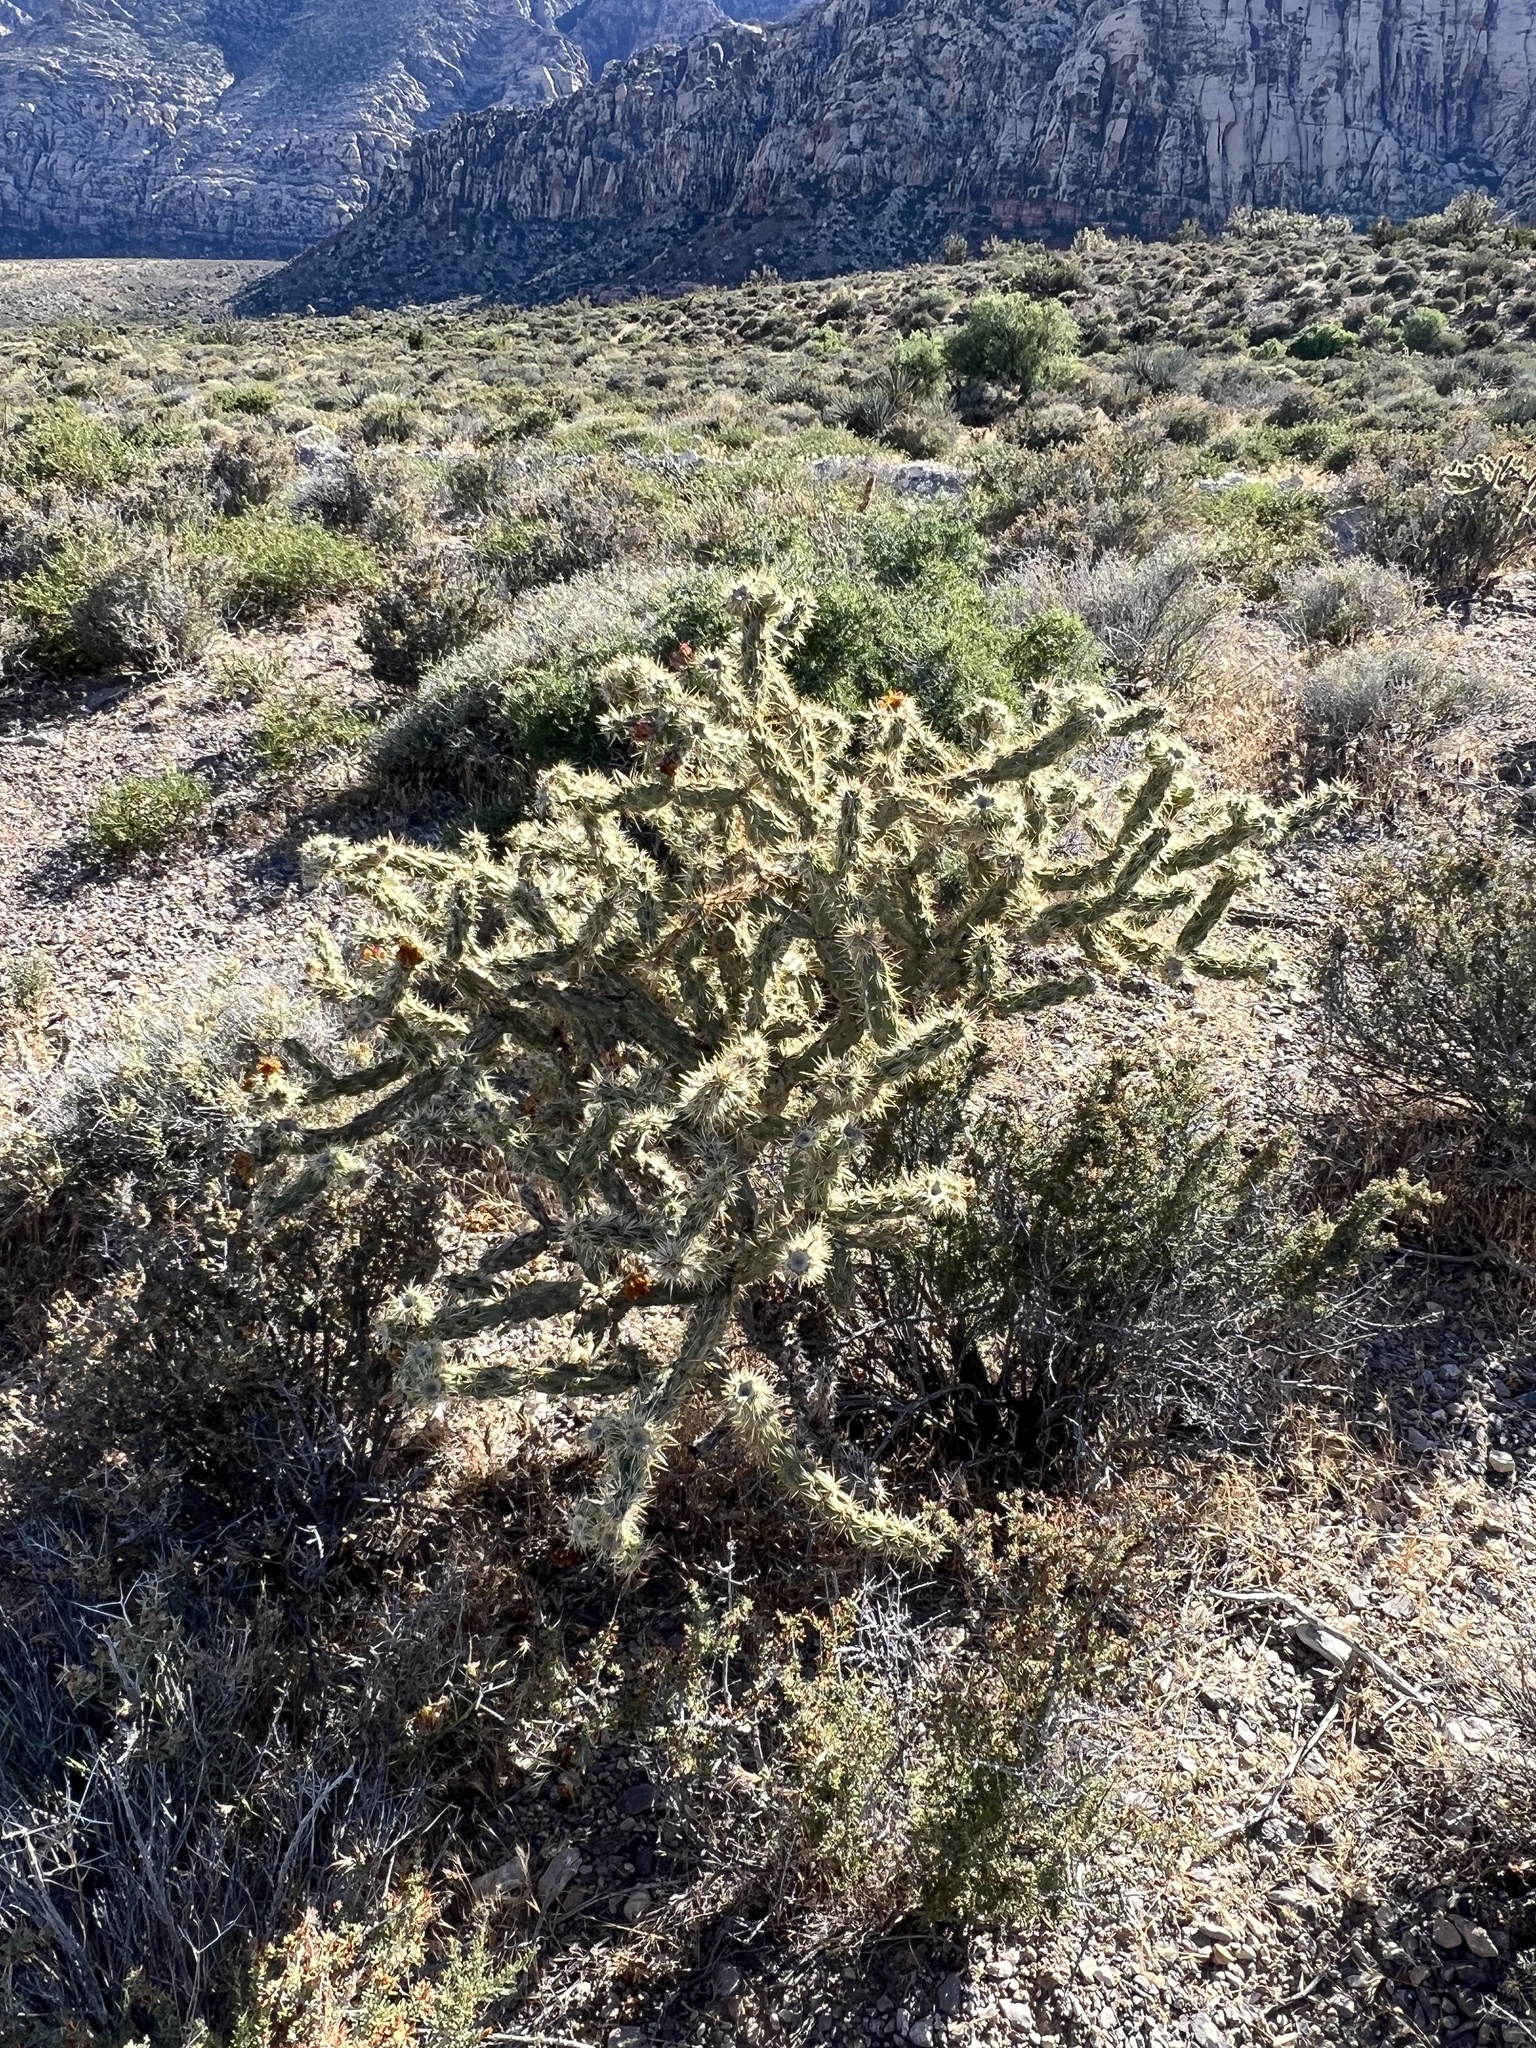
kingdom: Plantae
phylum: Tracheophyta
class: Magnoliopsida
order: Caryophyllales
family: Cactaceae
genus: Cylindropuntia
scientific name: Cylindropuntia acanthocarpa
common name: Buckhorn cholla
